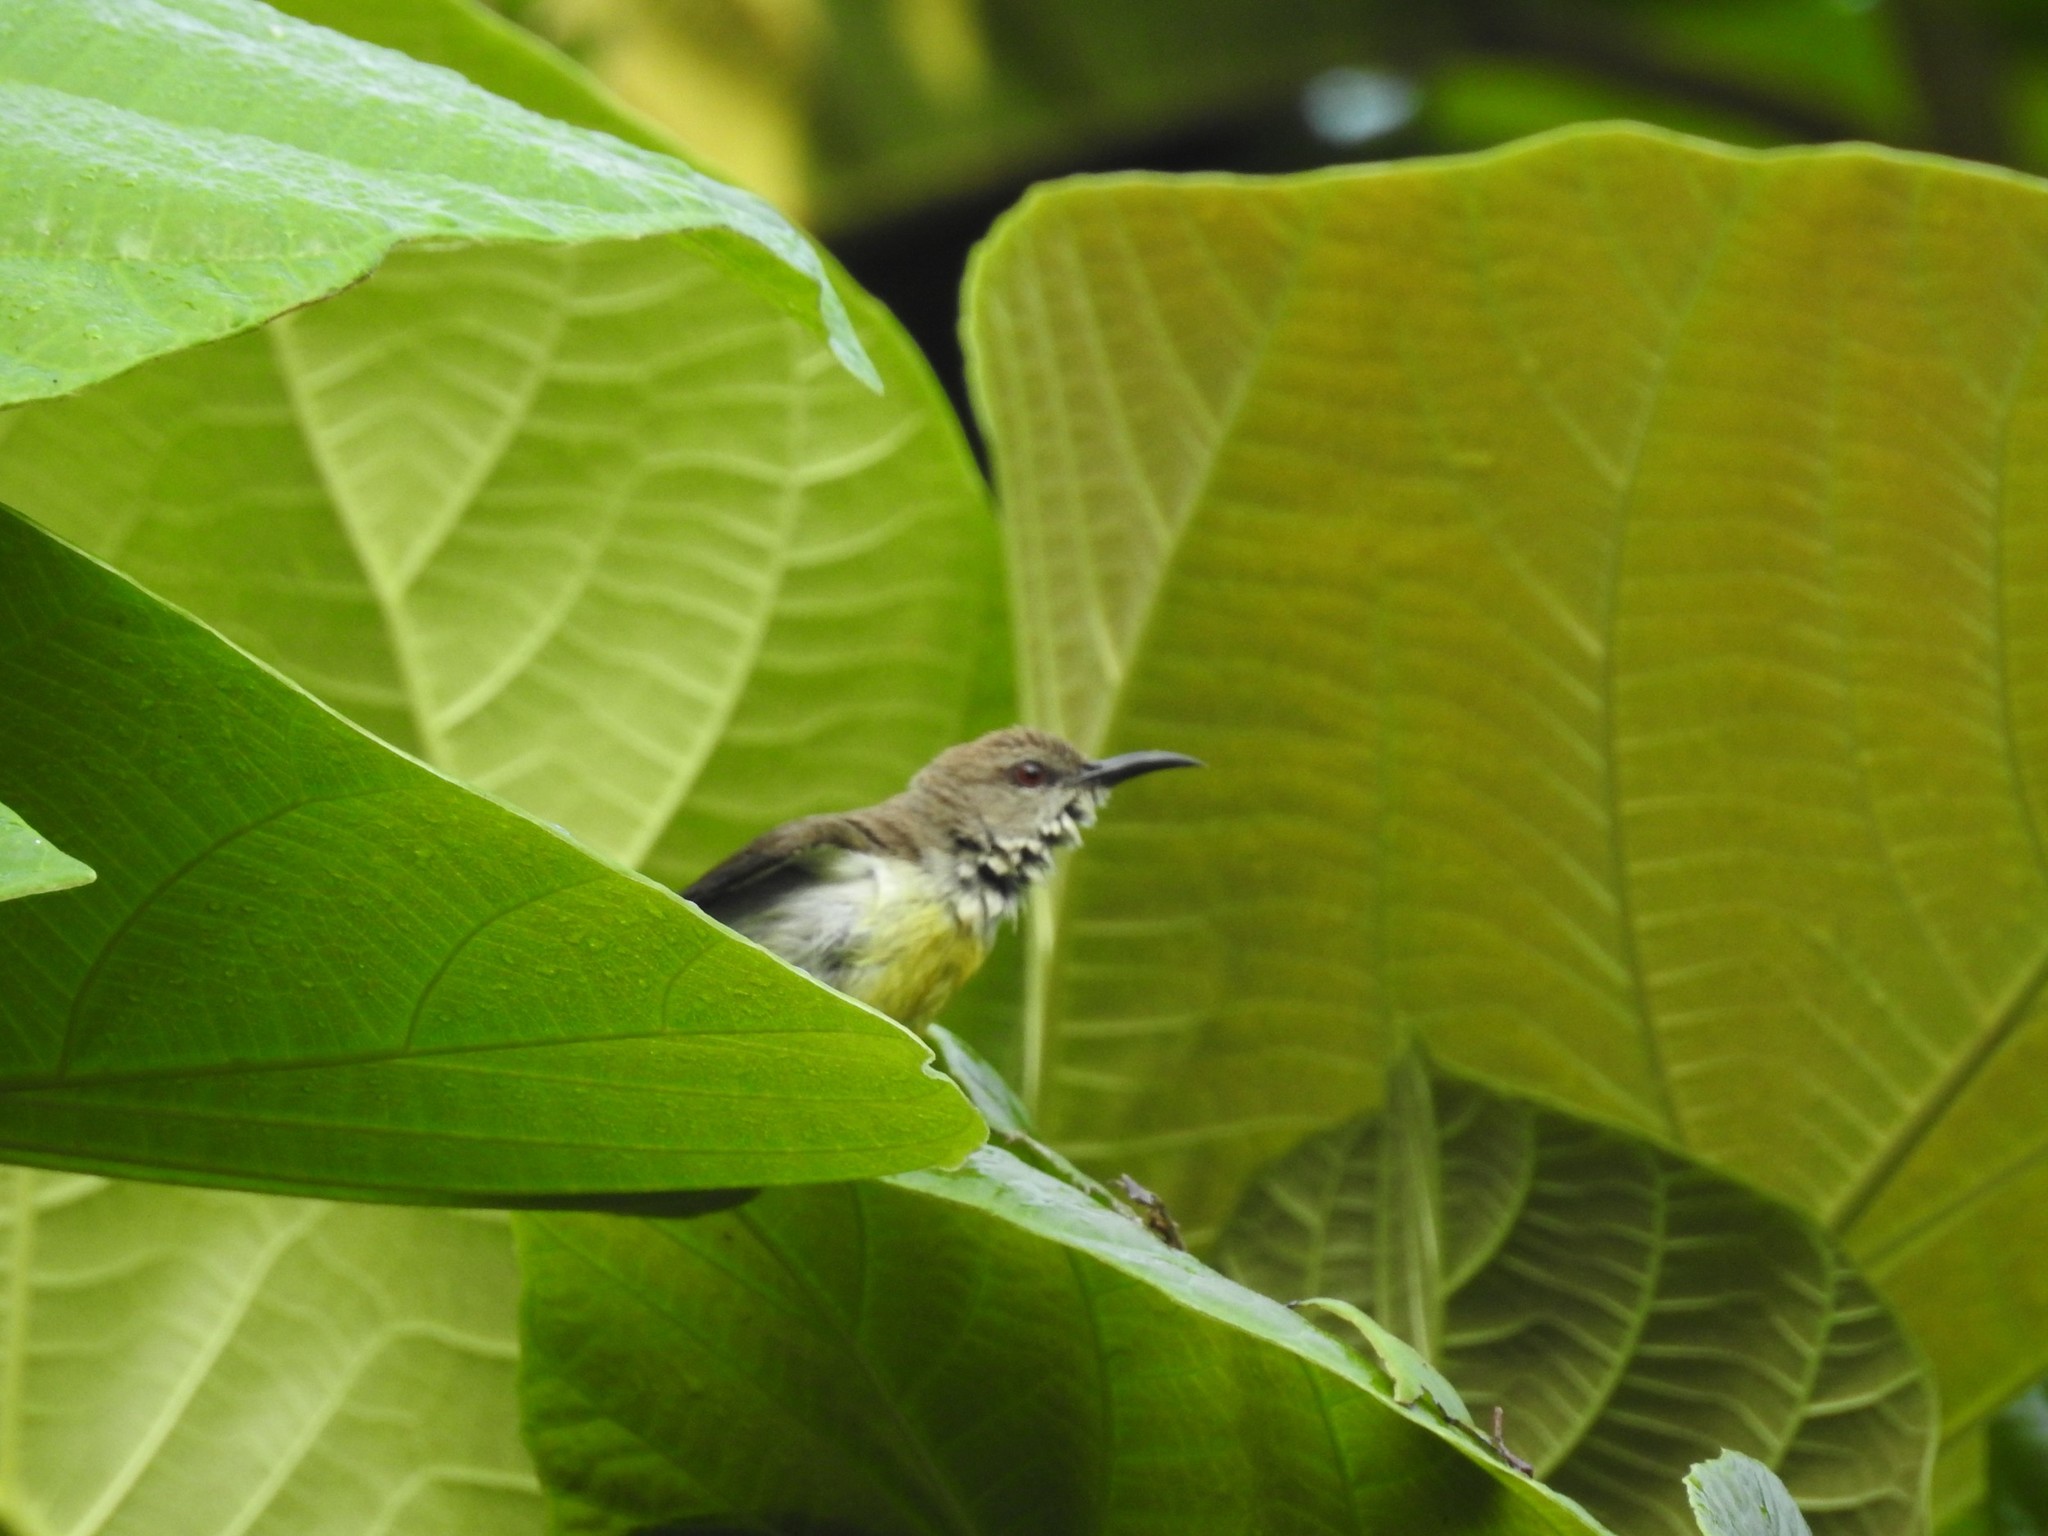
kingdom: Animalia
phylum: Chordata
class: Aves
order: Passeriformes
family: Nectariniidae
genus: Leptocoma
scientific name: Leptocoma zeylonica
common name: Purple-rumped sunbird
